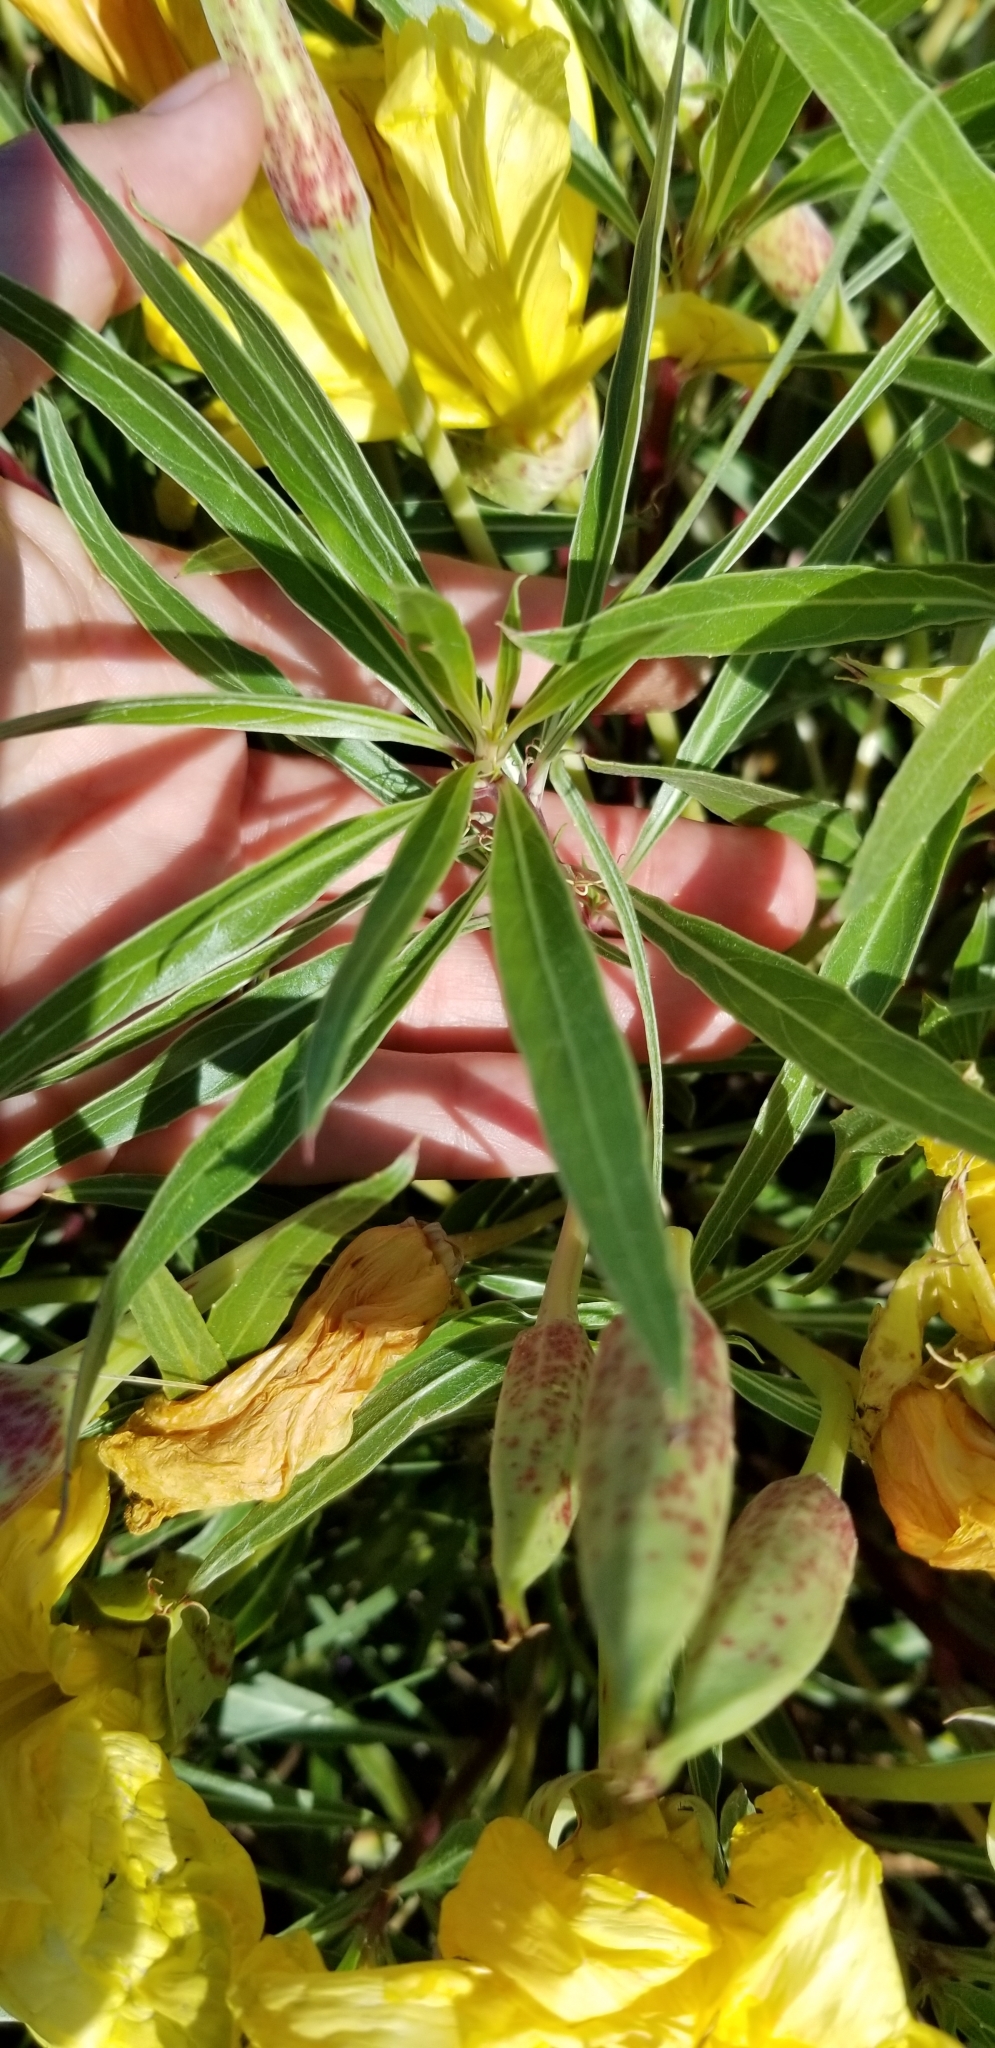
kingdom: Plantae
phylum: Tracheophyta
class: Magnoliopsida
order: Myrtales
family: Onagraceae
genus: Oenothera
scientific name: Oenothera macrocarpa
